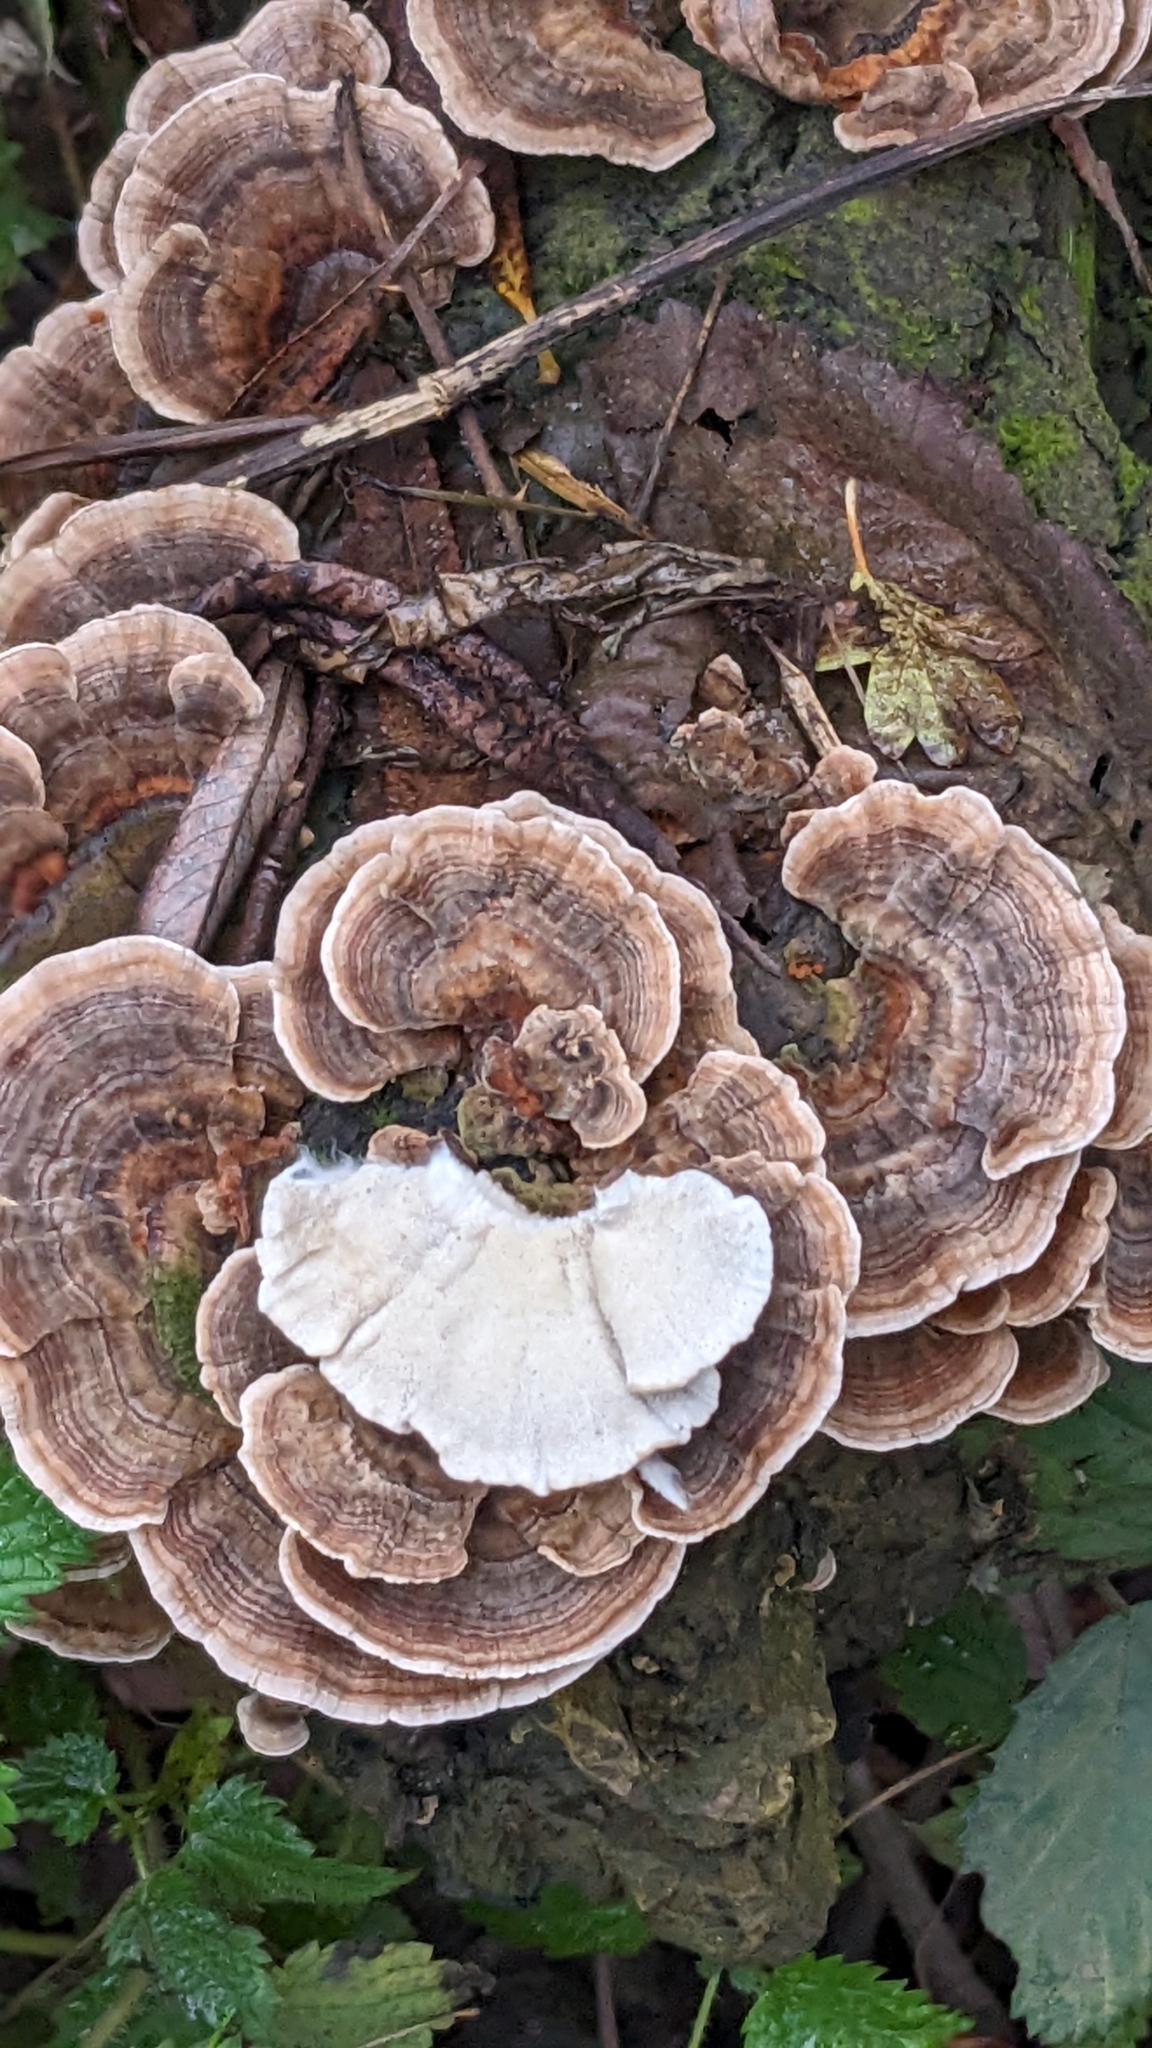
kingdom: Fungi
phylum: Basidiomycota
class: Agaricomycetes
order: Polyporales
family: Polyporaceae
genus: Trametes
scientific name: Trametes versicolor
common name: Turkeytail
